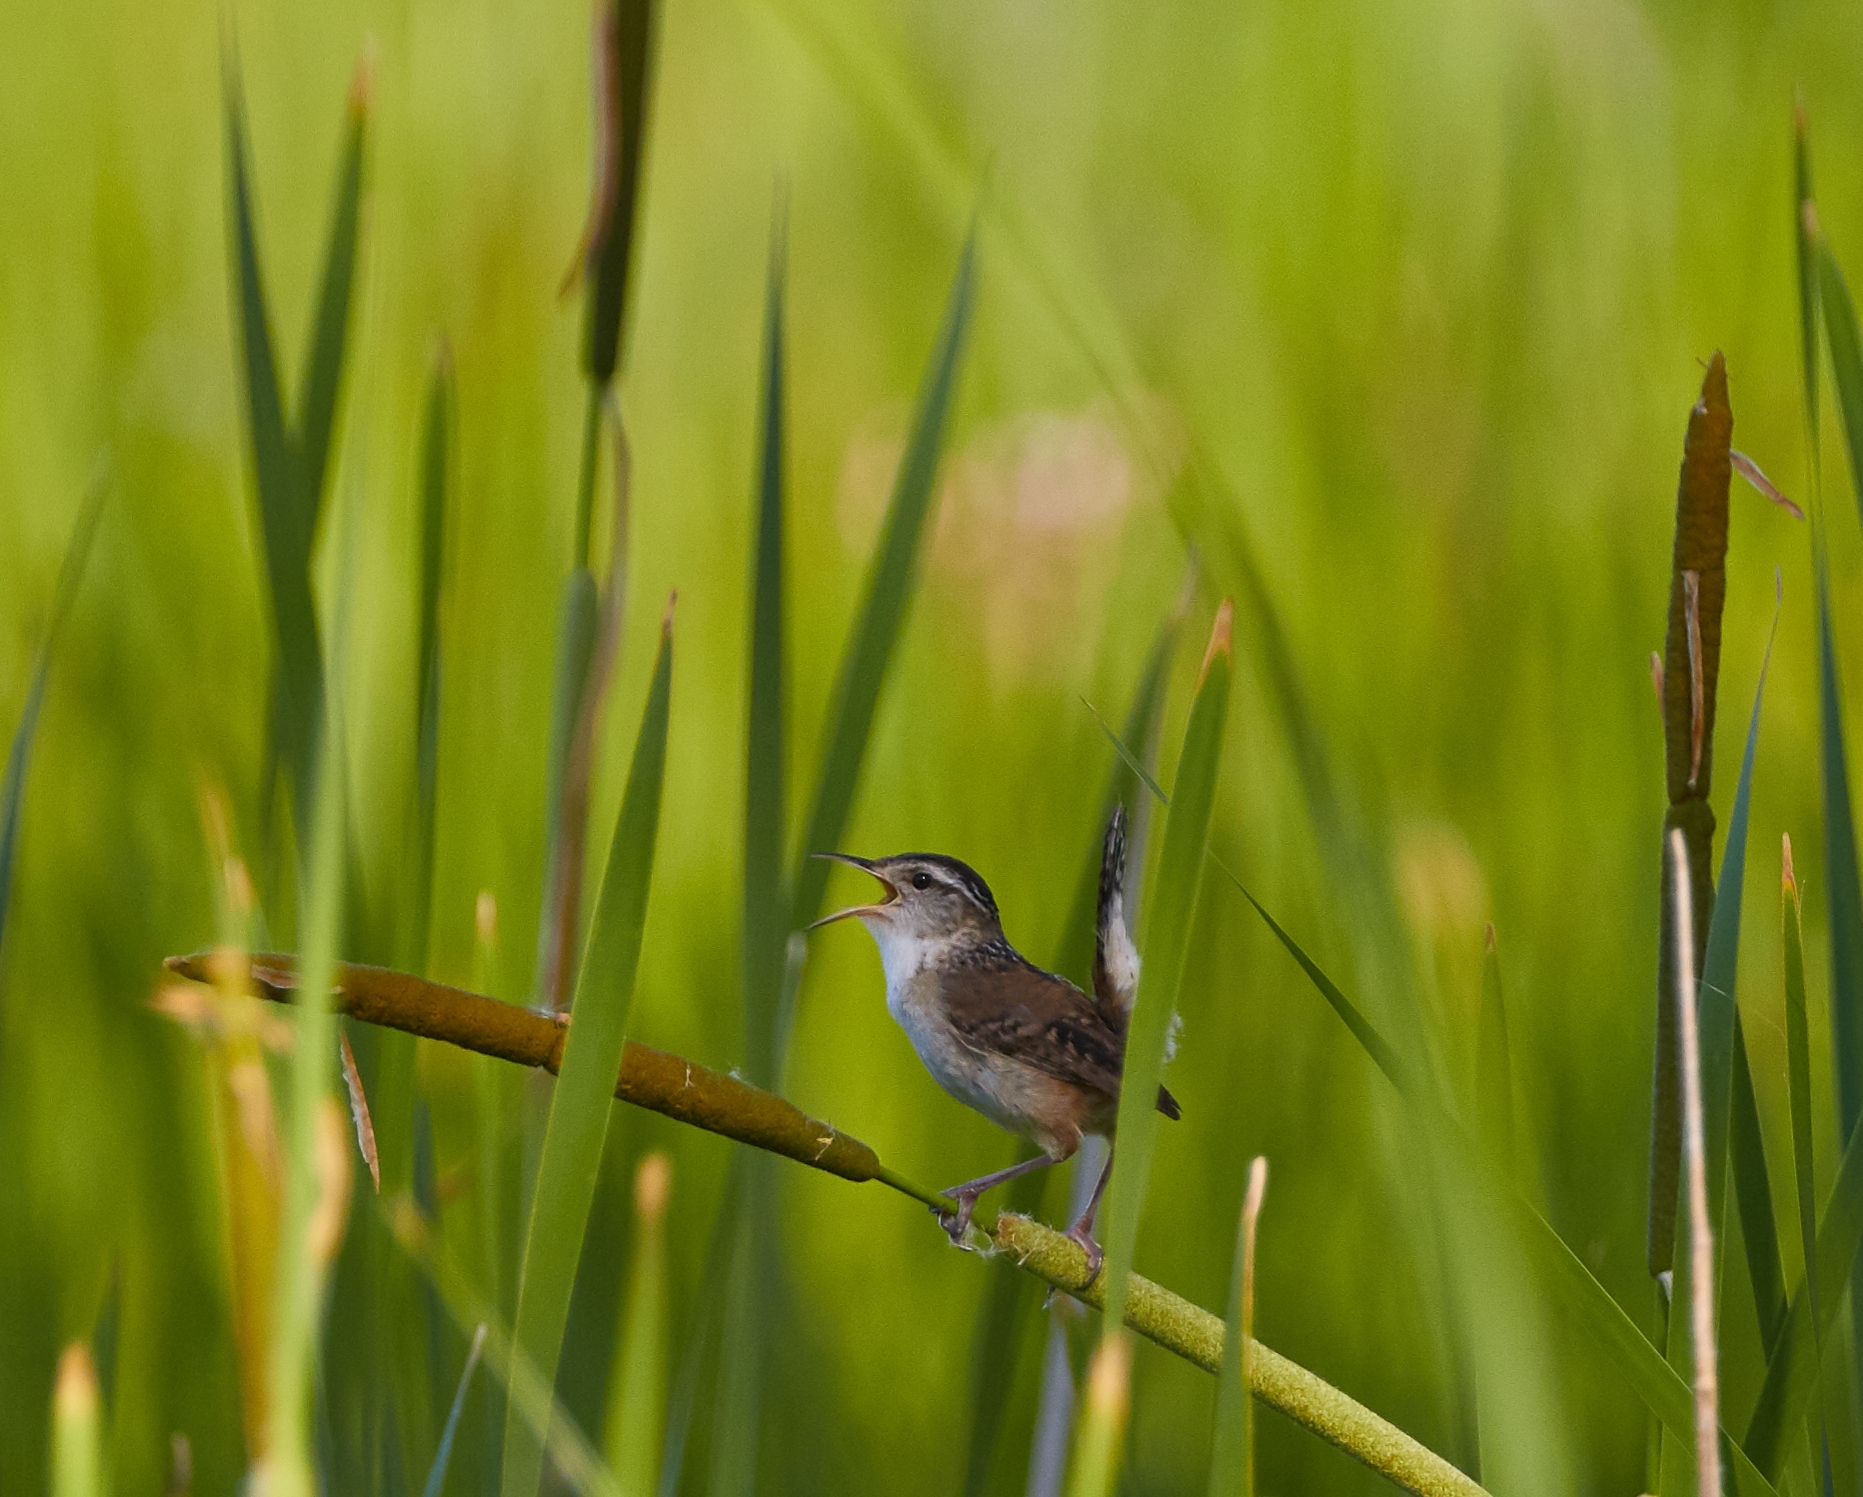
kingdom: Animalia
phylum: Chordata
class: Aves
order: Passeriformes
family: Troglodytidae
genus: Cistothorus
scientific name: Cistothorus palustris
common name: Marsh wren
